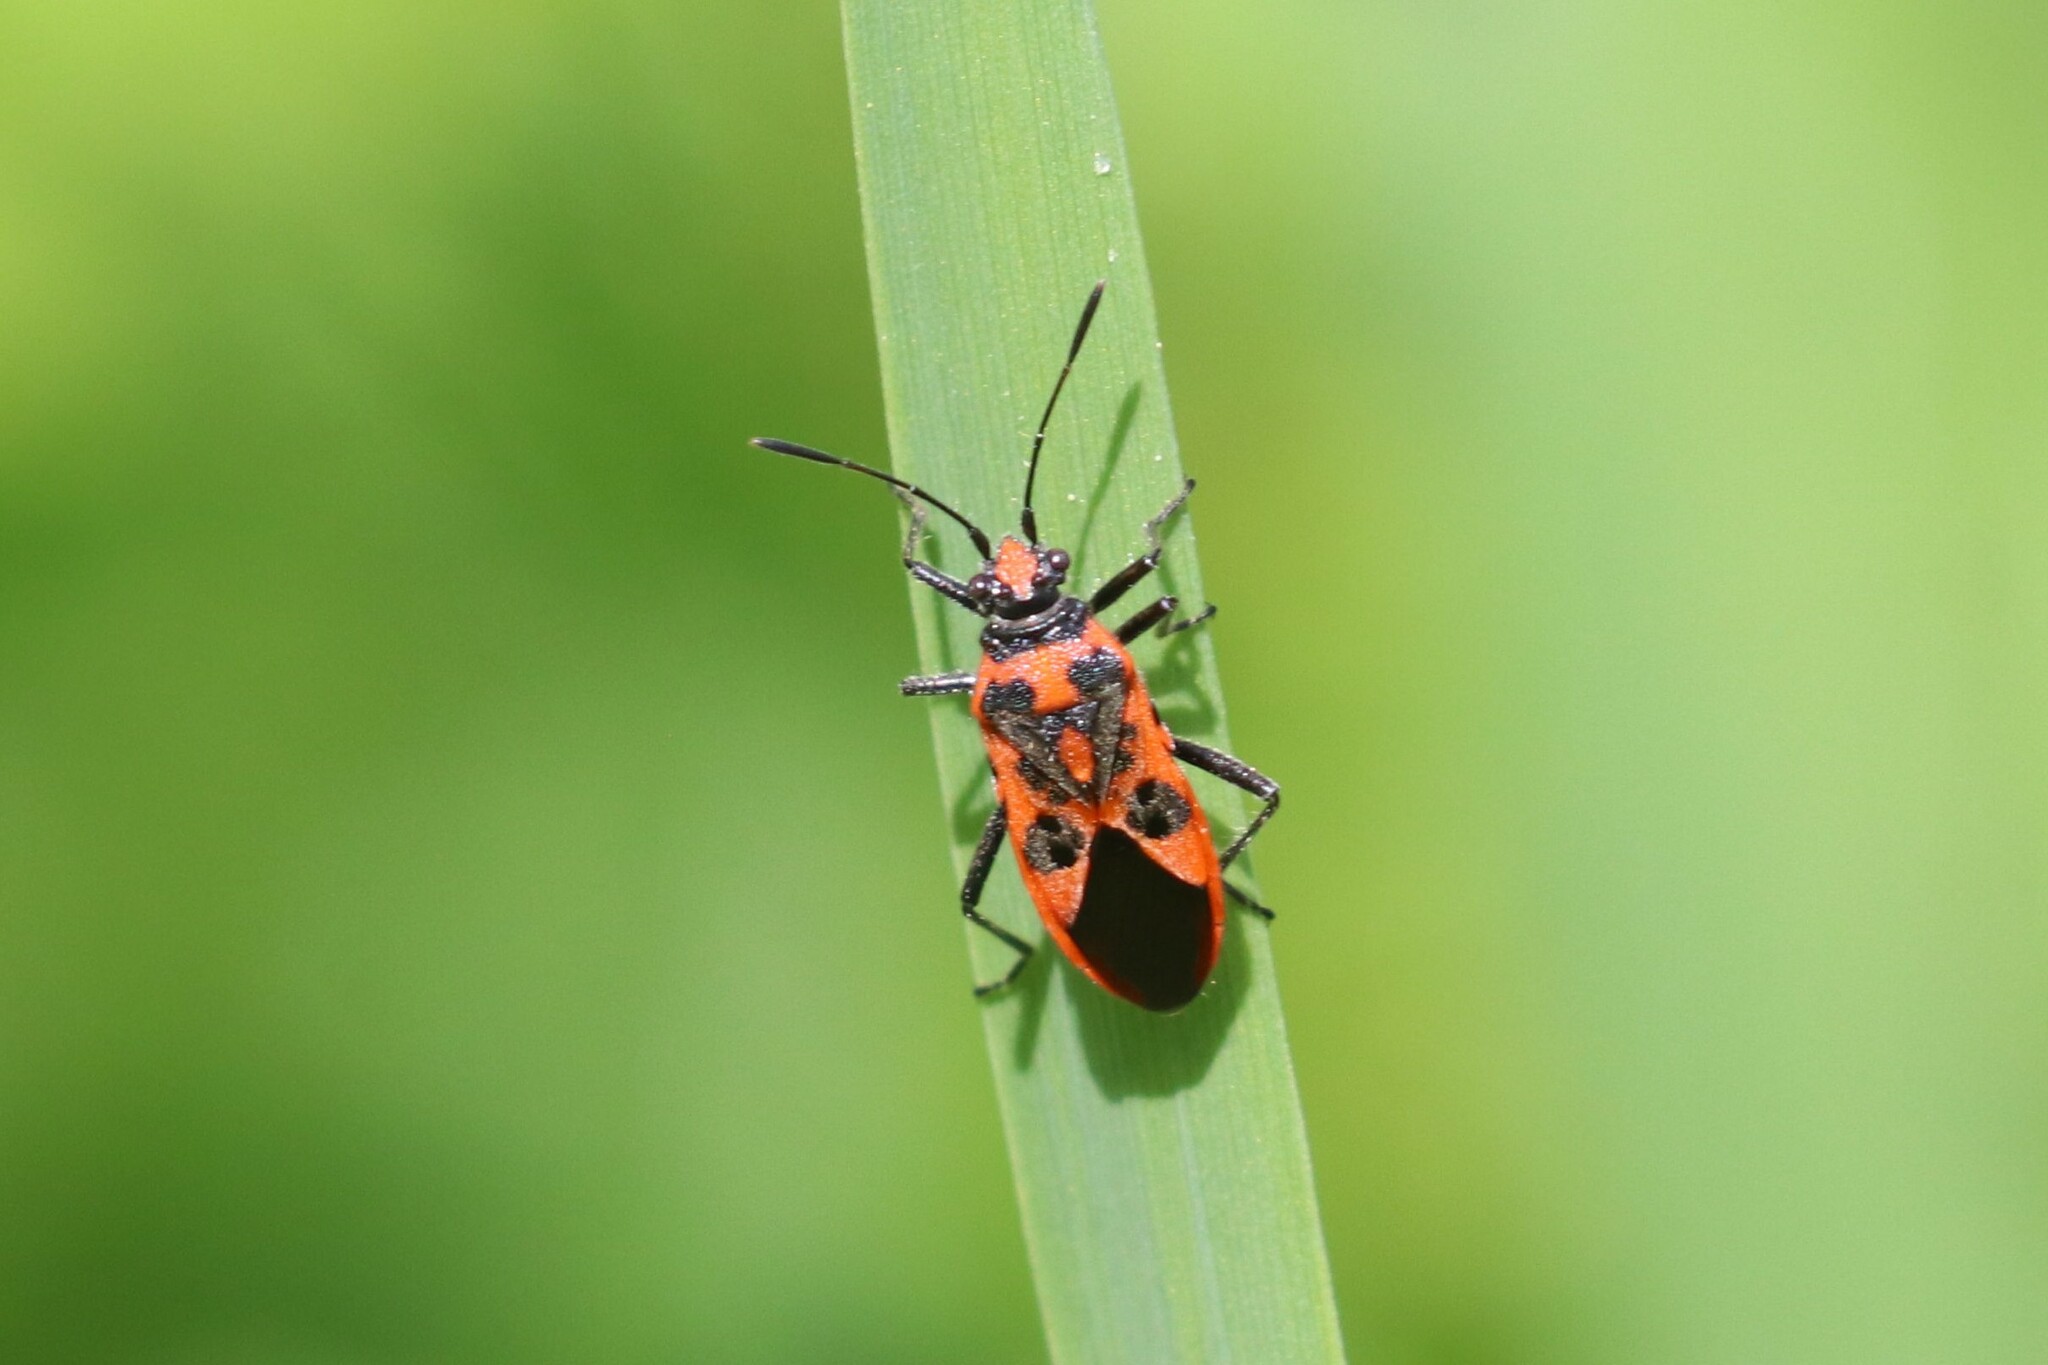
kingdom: Animalia
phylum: Arthropoda
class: Insecta
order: Hemiptera
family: Rhopalidae
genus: Corizus
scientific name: Corizus hyoscyami
